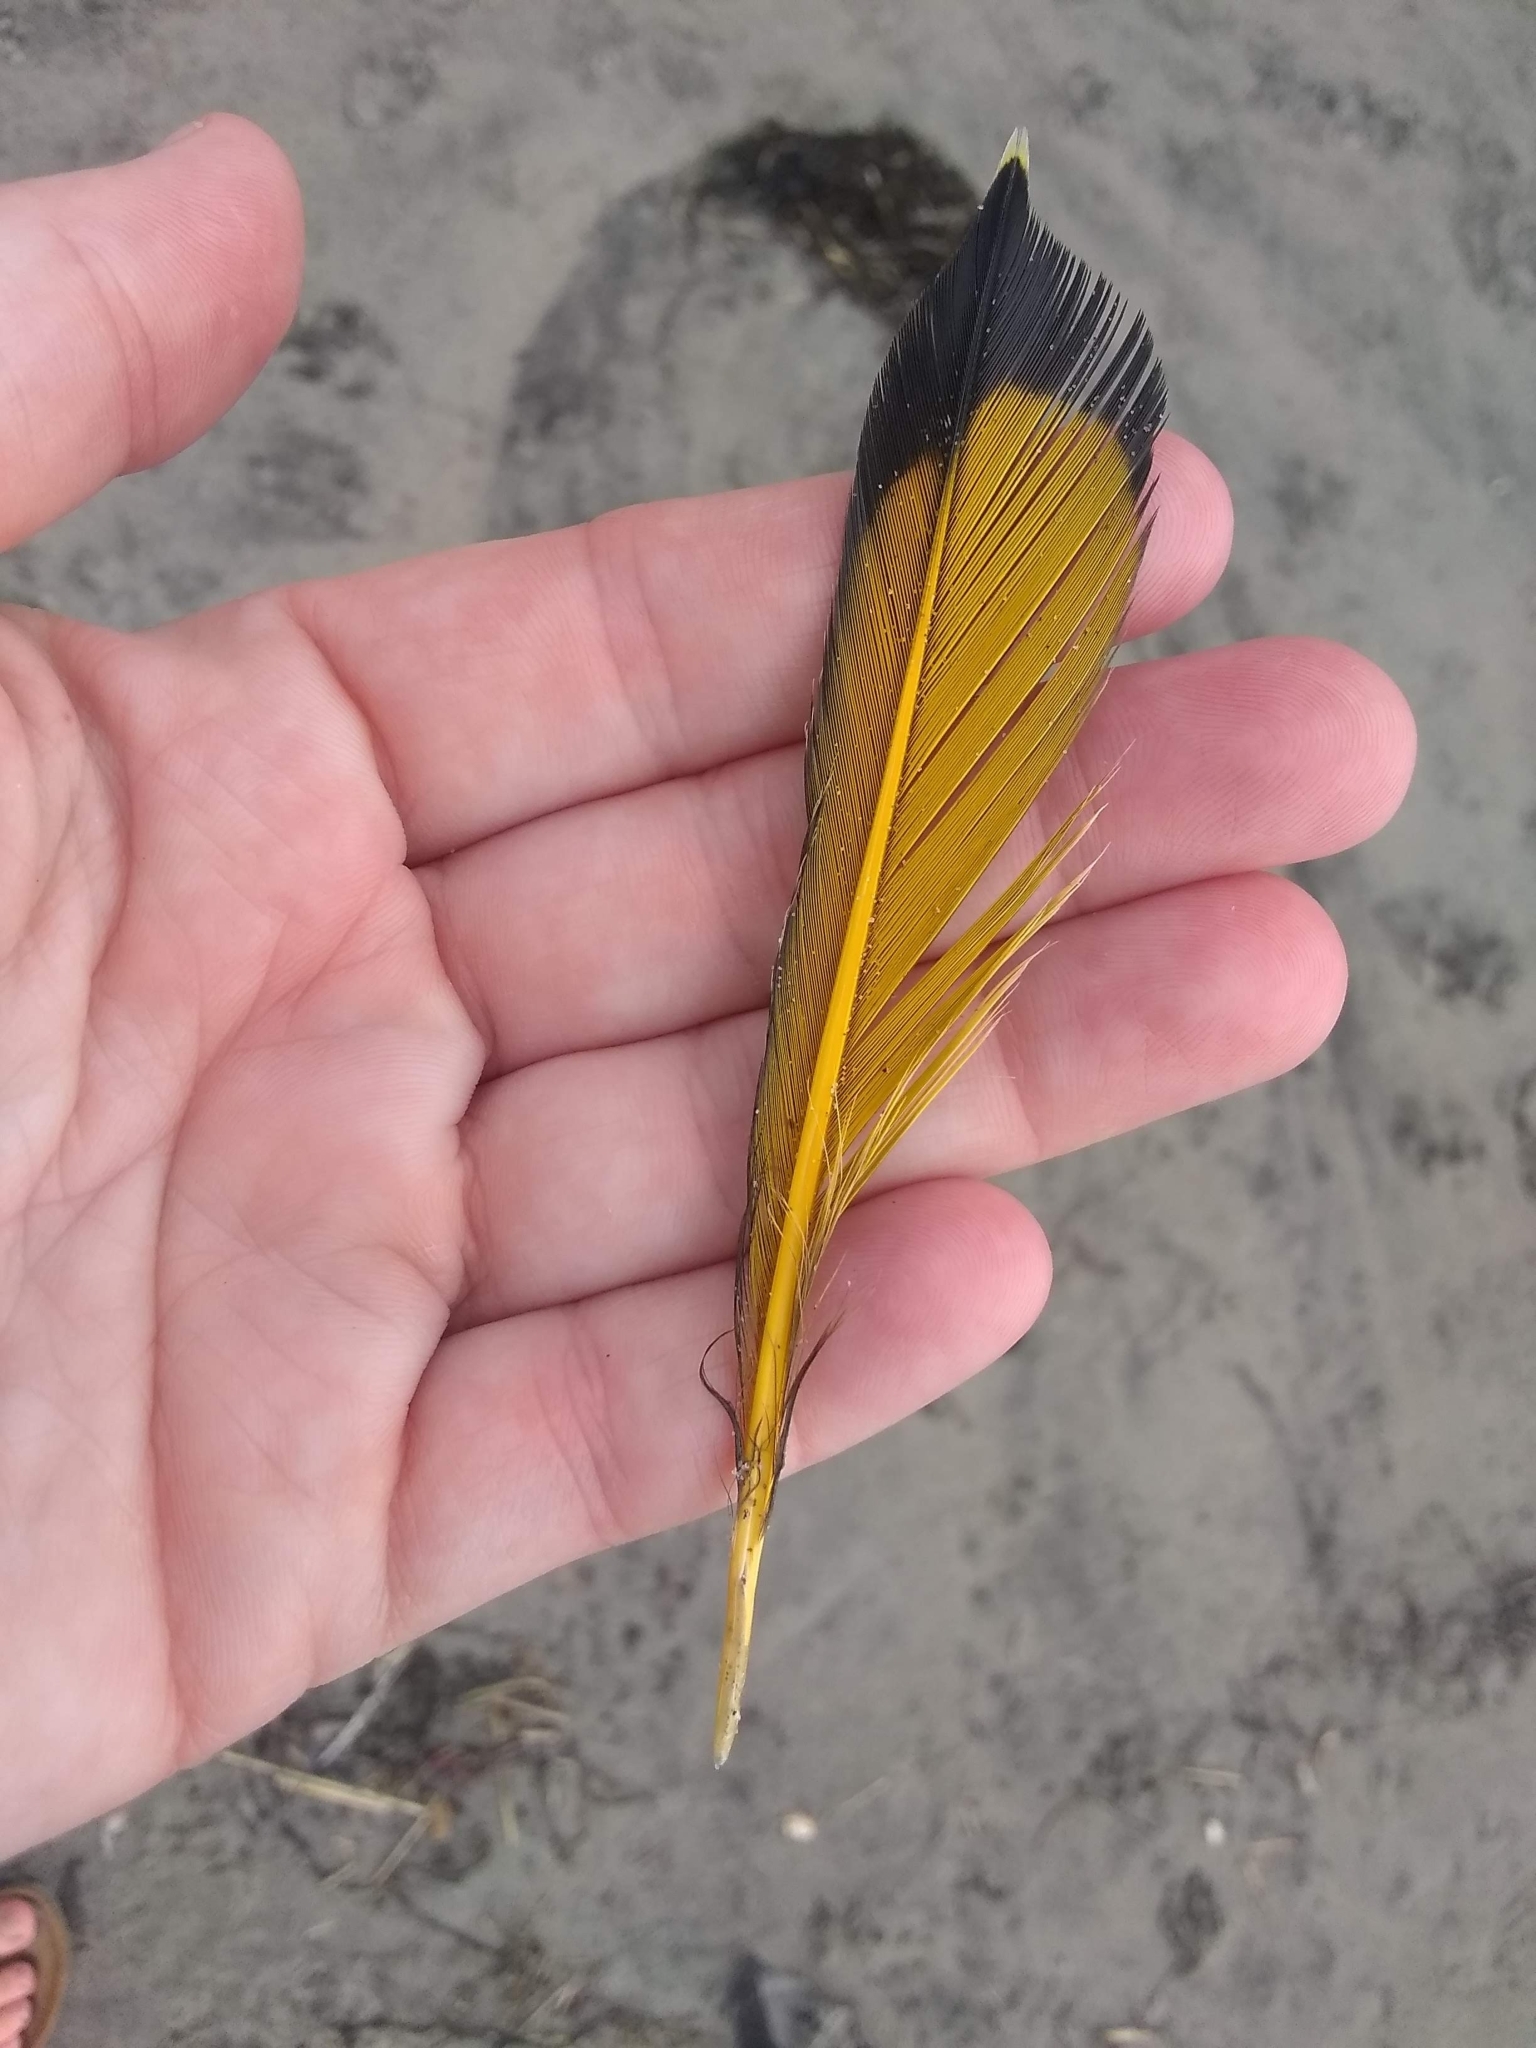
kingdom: Animalia
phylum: Chordata
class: Aves
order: Piciformes
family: Picidae
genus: Colaptes
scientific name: Colaptes auratus
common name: Northern flicker
